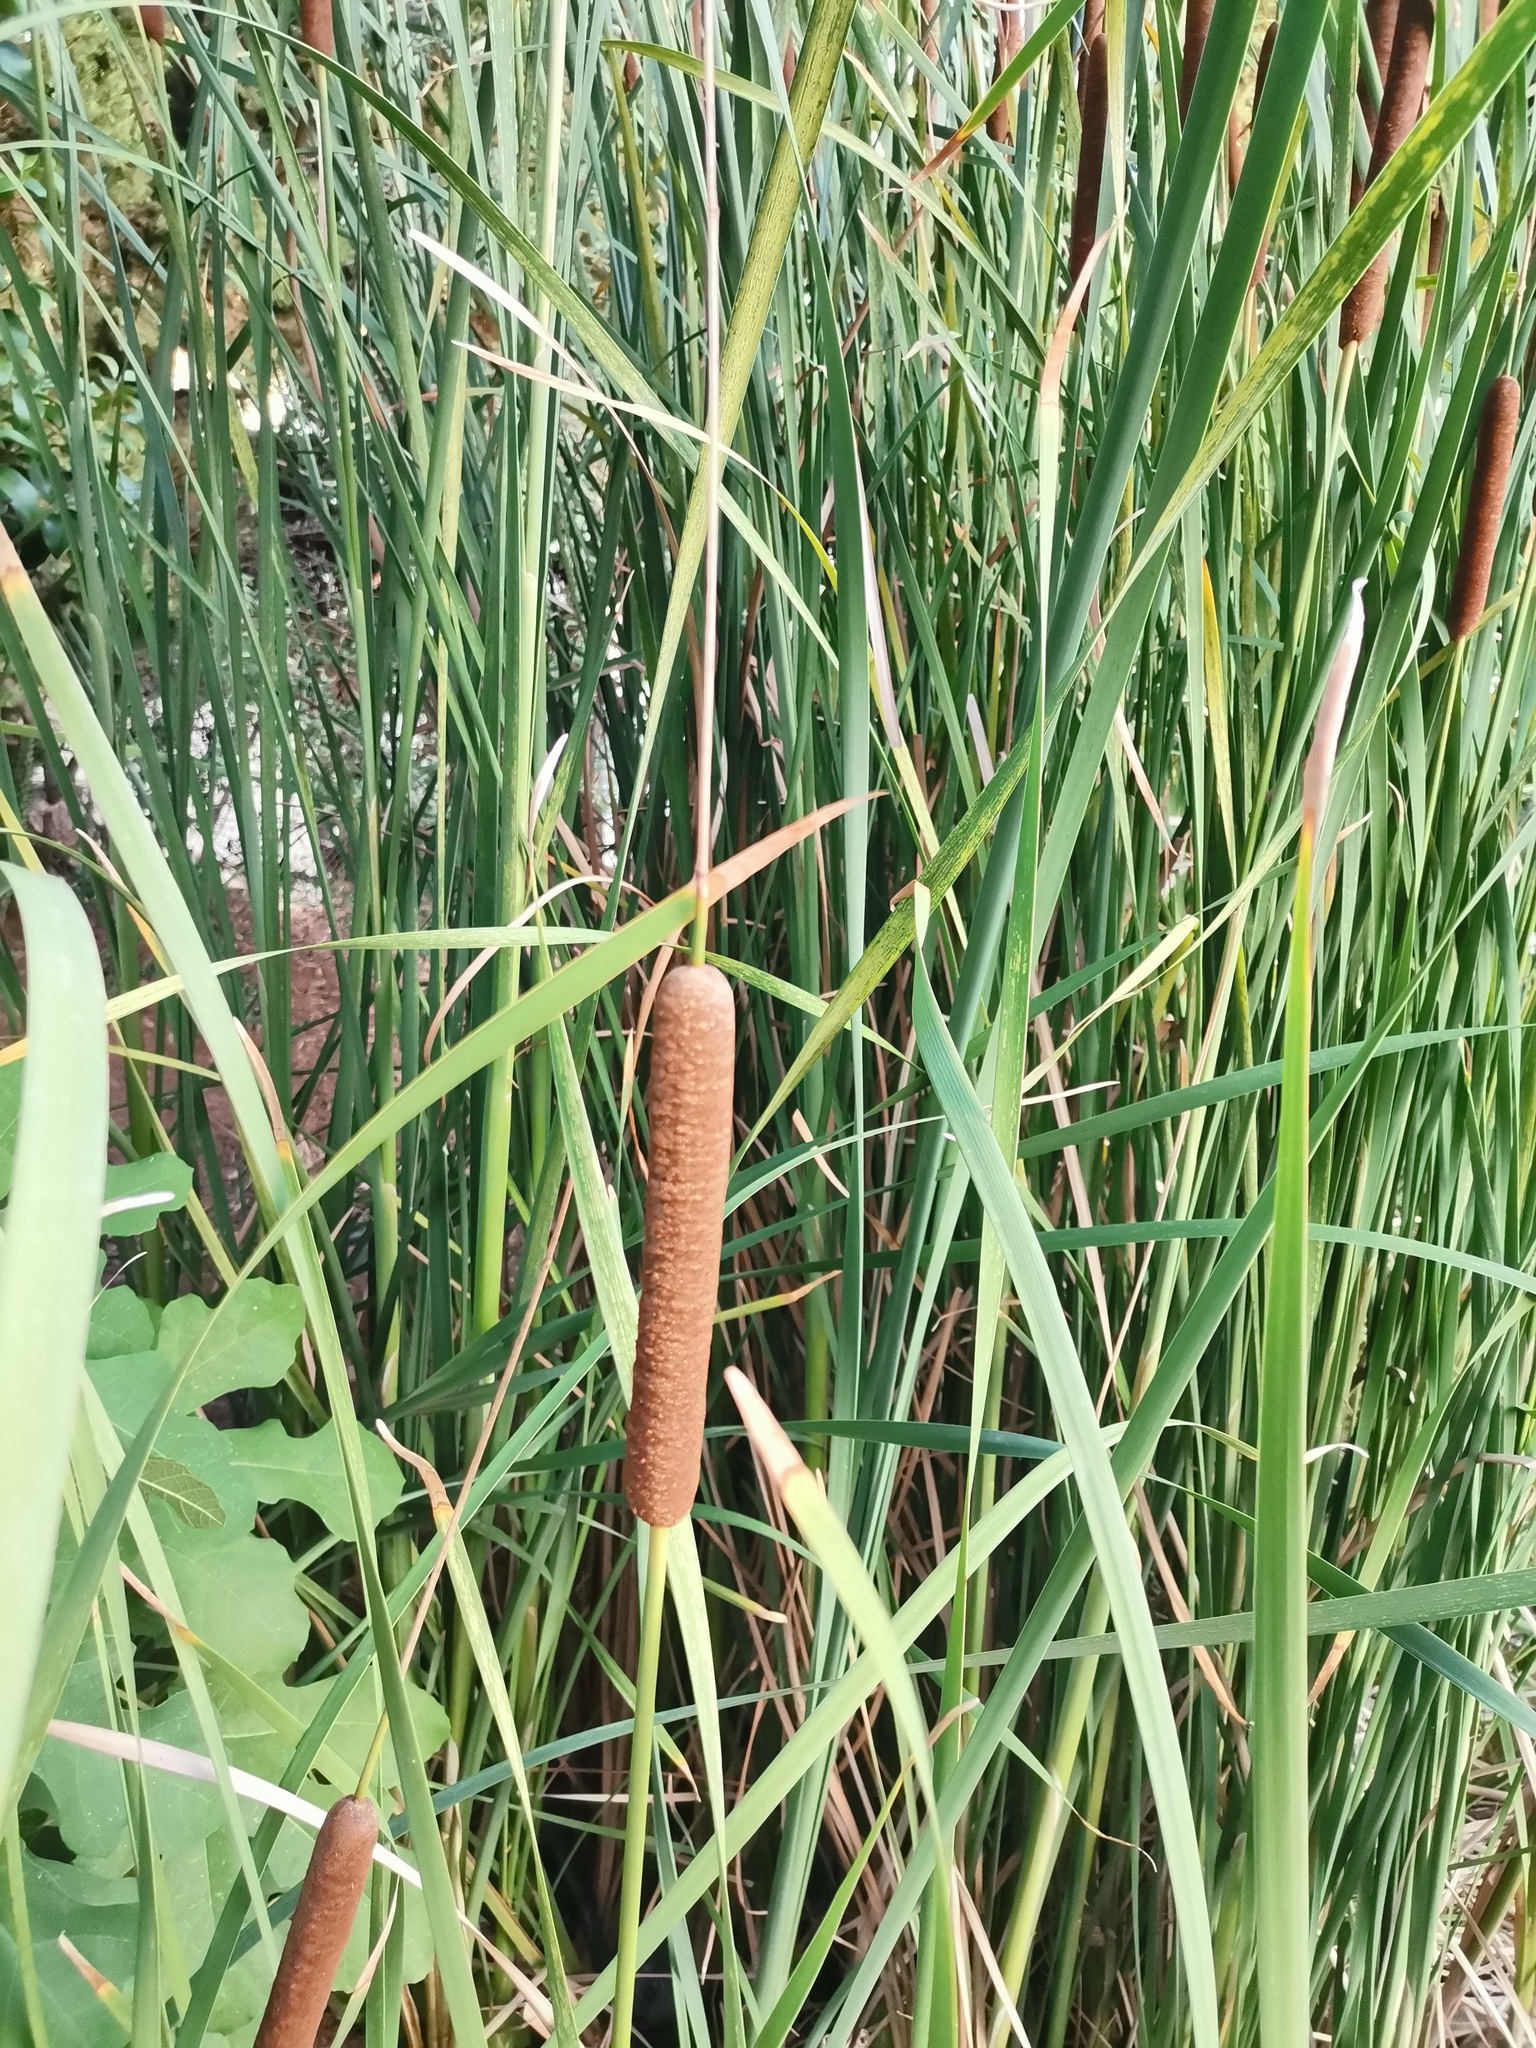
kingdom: Plantae
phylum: Tracheophyta
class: Liliopsida
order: Poales
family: Typhaceae
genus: Typha
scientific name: Typha angustifolia
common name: Lesser bulrush
